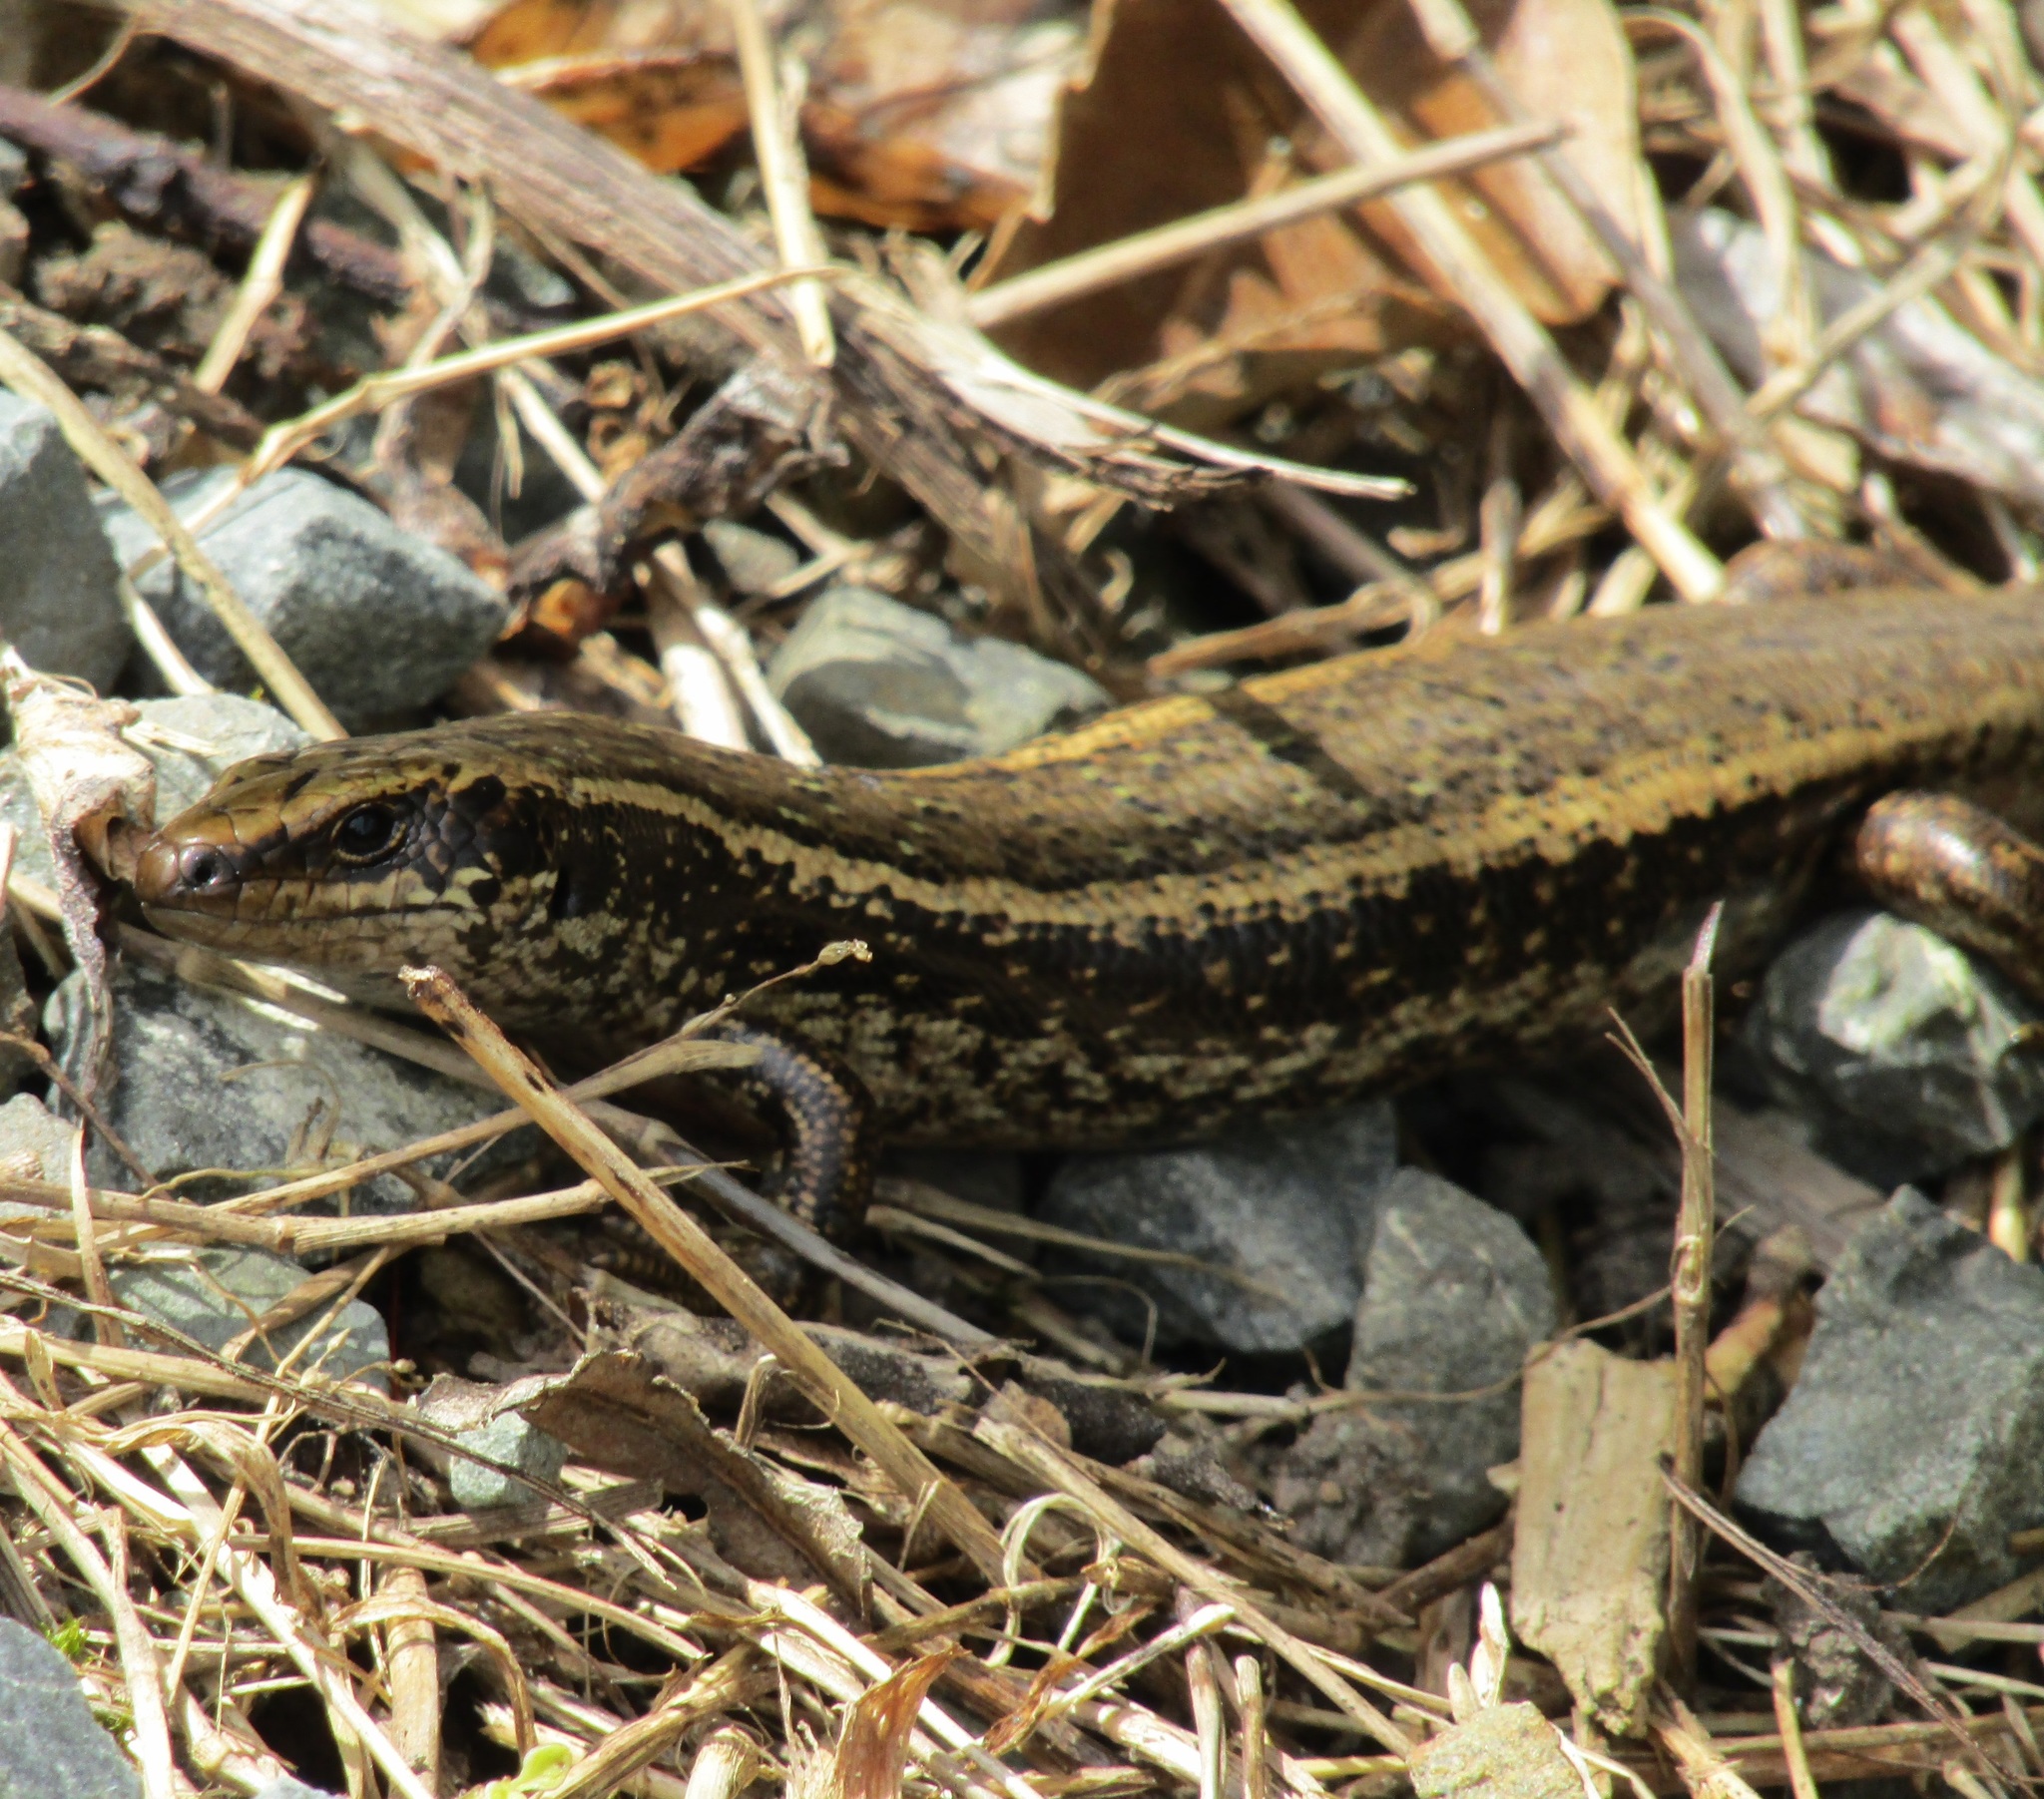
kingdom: Animalia
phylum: Chordata
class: Squamata
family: Scincidae
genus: Oligosoma
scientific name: Oligosoma kokowai
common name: Northern spotted skink
